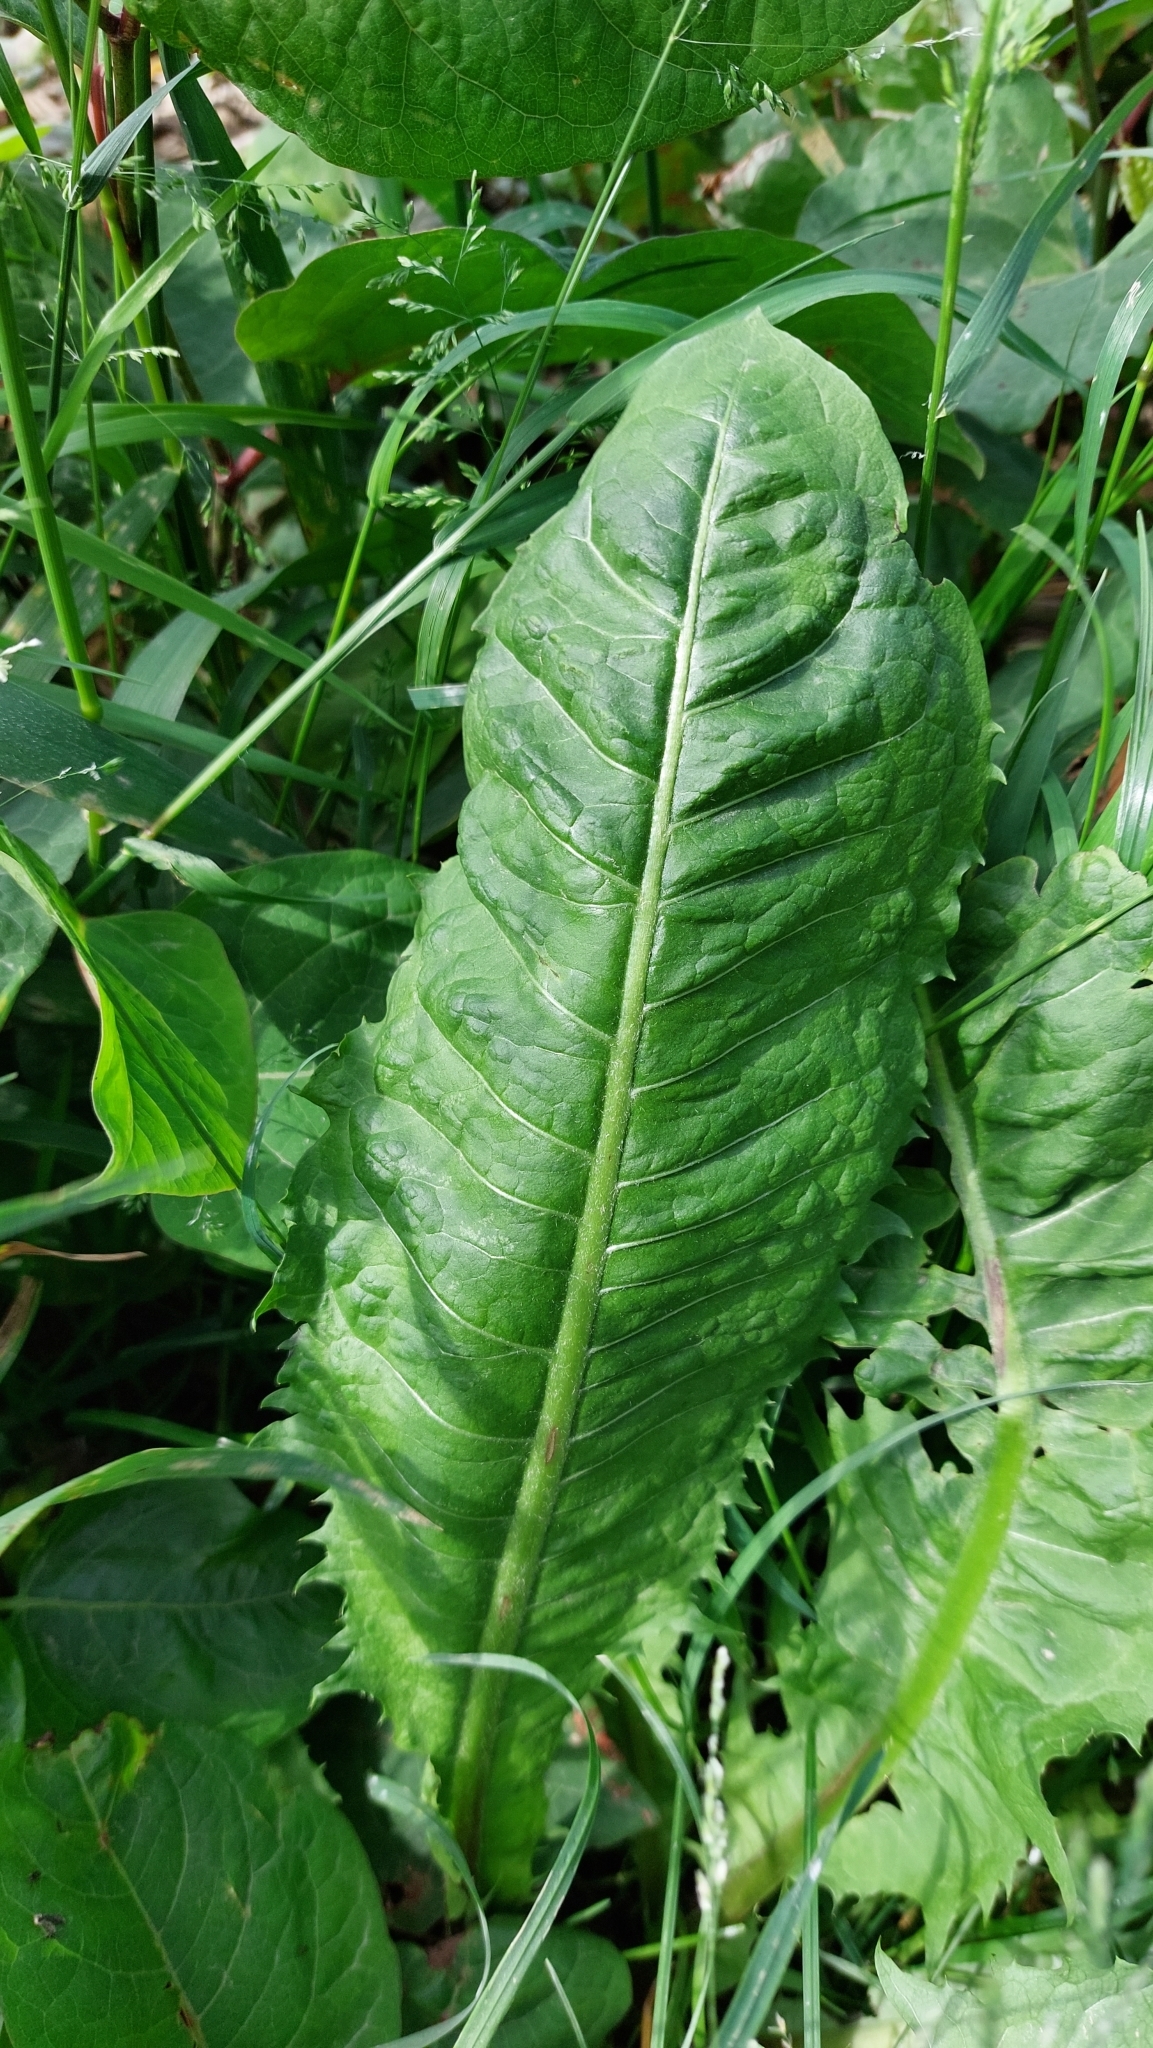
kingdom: Plantae
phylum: Tracheophyta
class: Magnoliopsida
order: Asterales
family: Asteraceae
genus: Taraxacum
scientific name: Taraxacum
